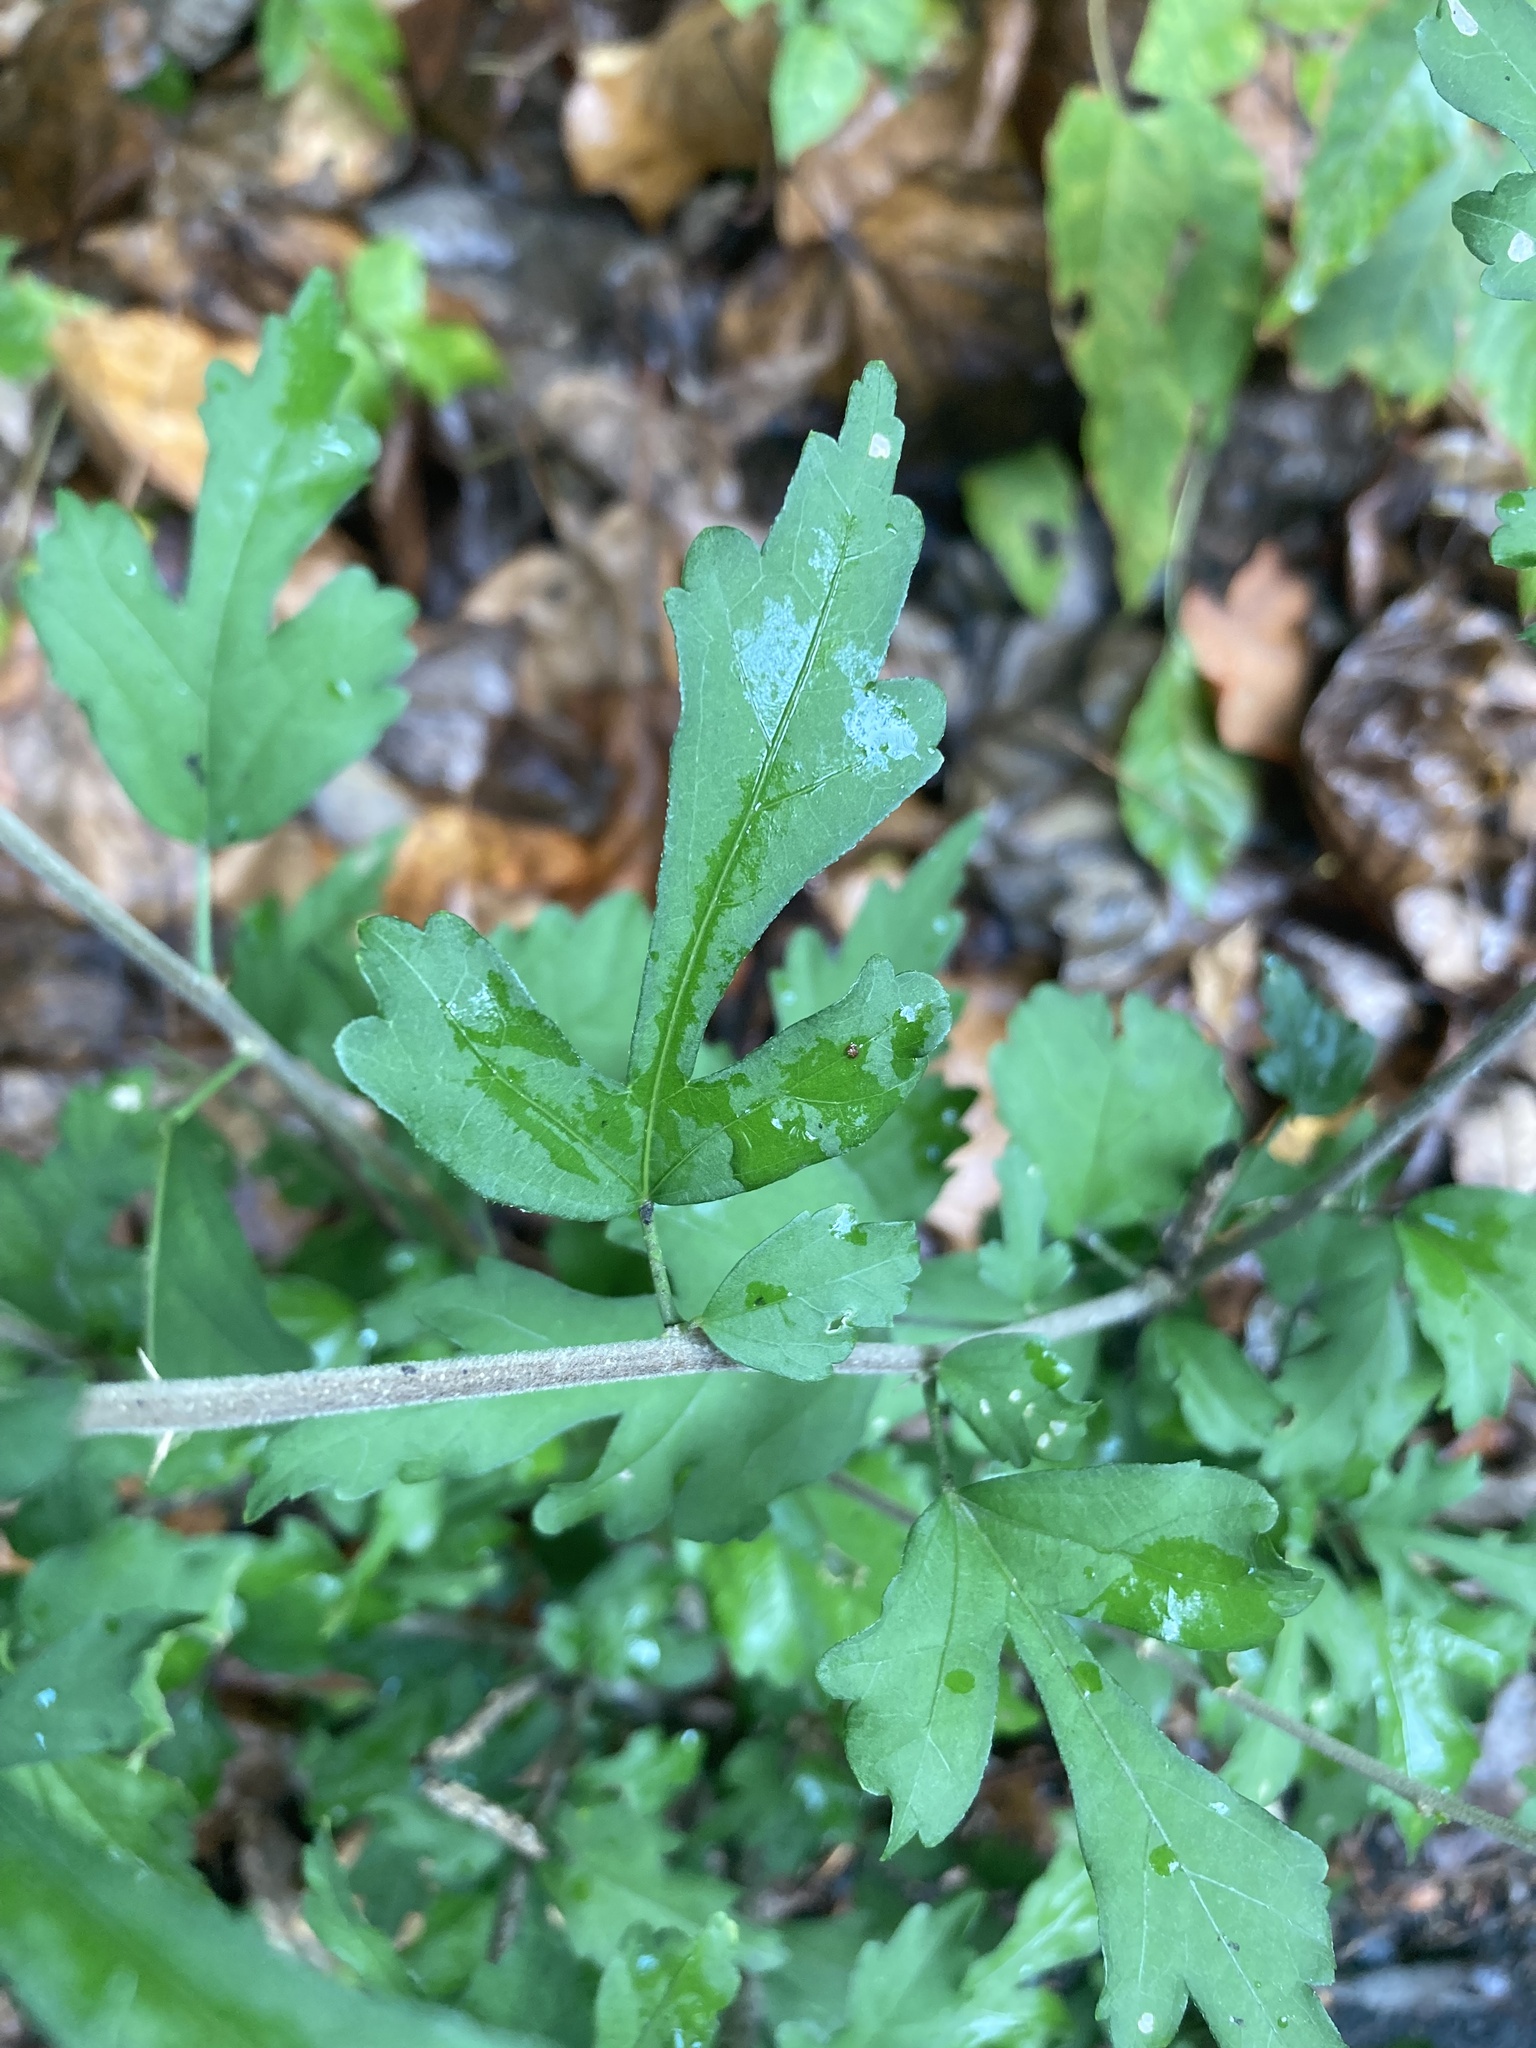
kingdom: Plantae
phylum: Tracheophyta
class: Magnoliopsida
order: Malvales
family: Malvaceae
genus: Hibiscus
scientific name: Hibiscus syriacus
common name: Syrian ketmia
